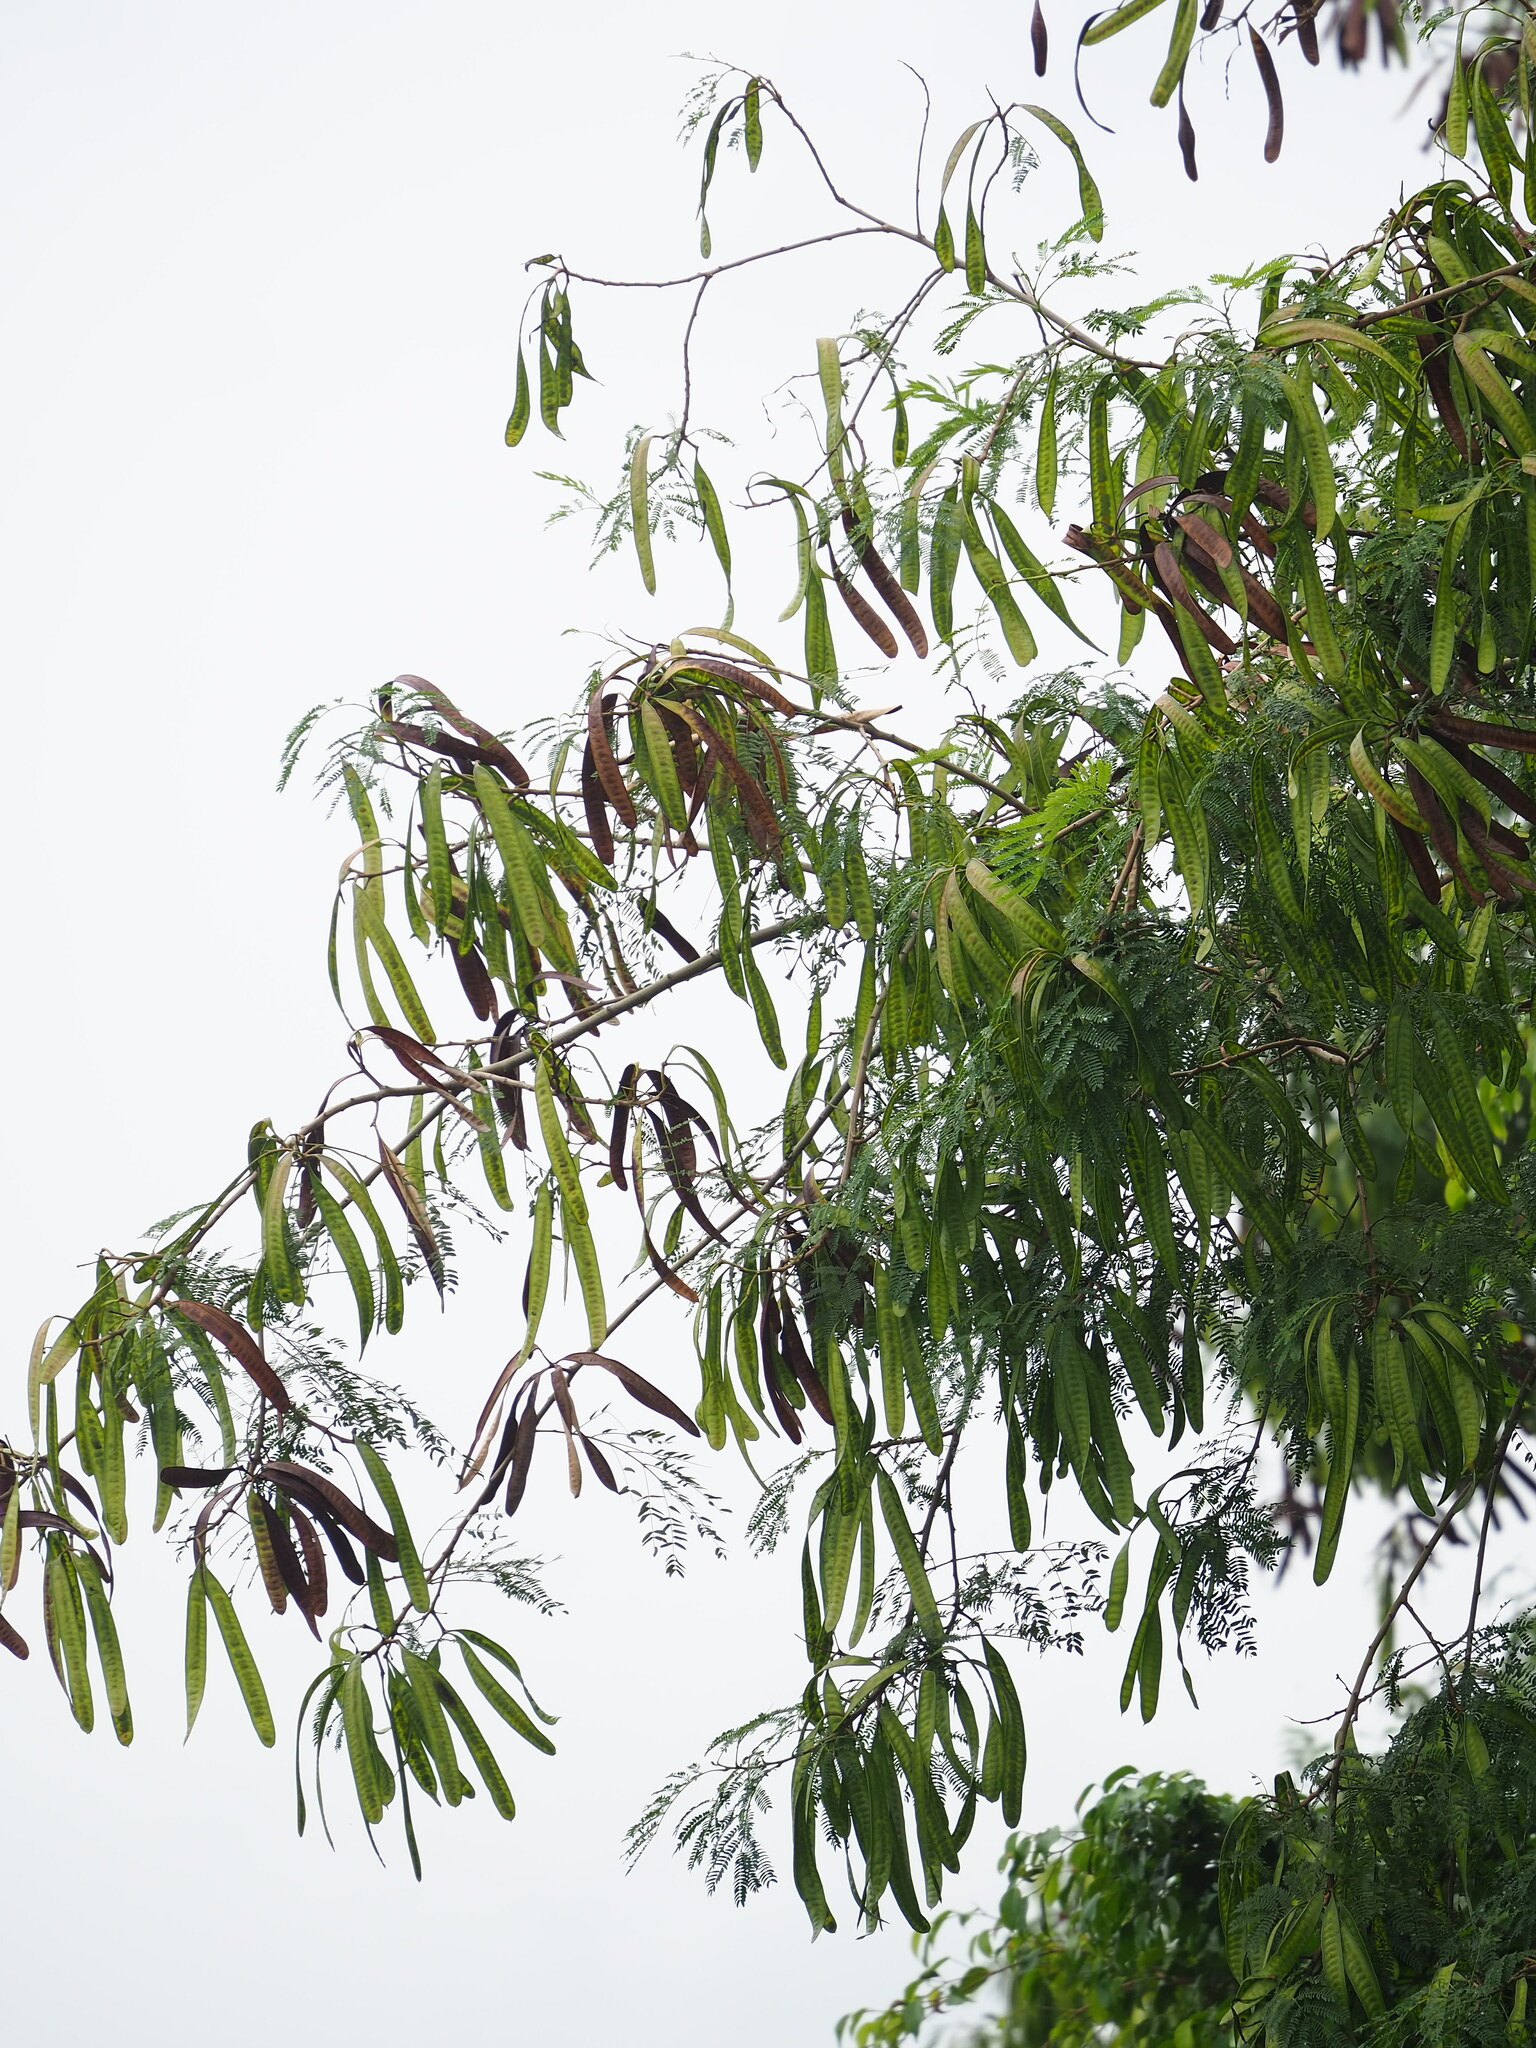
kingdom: Plantae
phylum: Tracheophyta
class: Magnoliopsida
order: Fabales
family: Fabaceae
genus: Leucaena
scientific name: Leucaena leucocephala
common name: White leadtree
